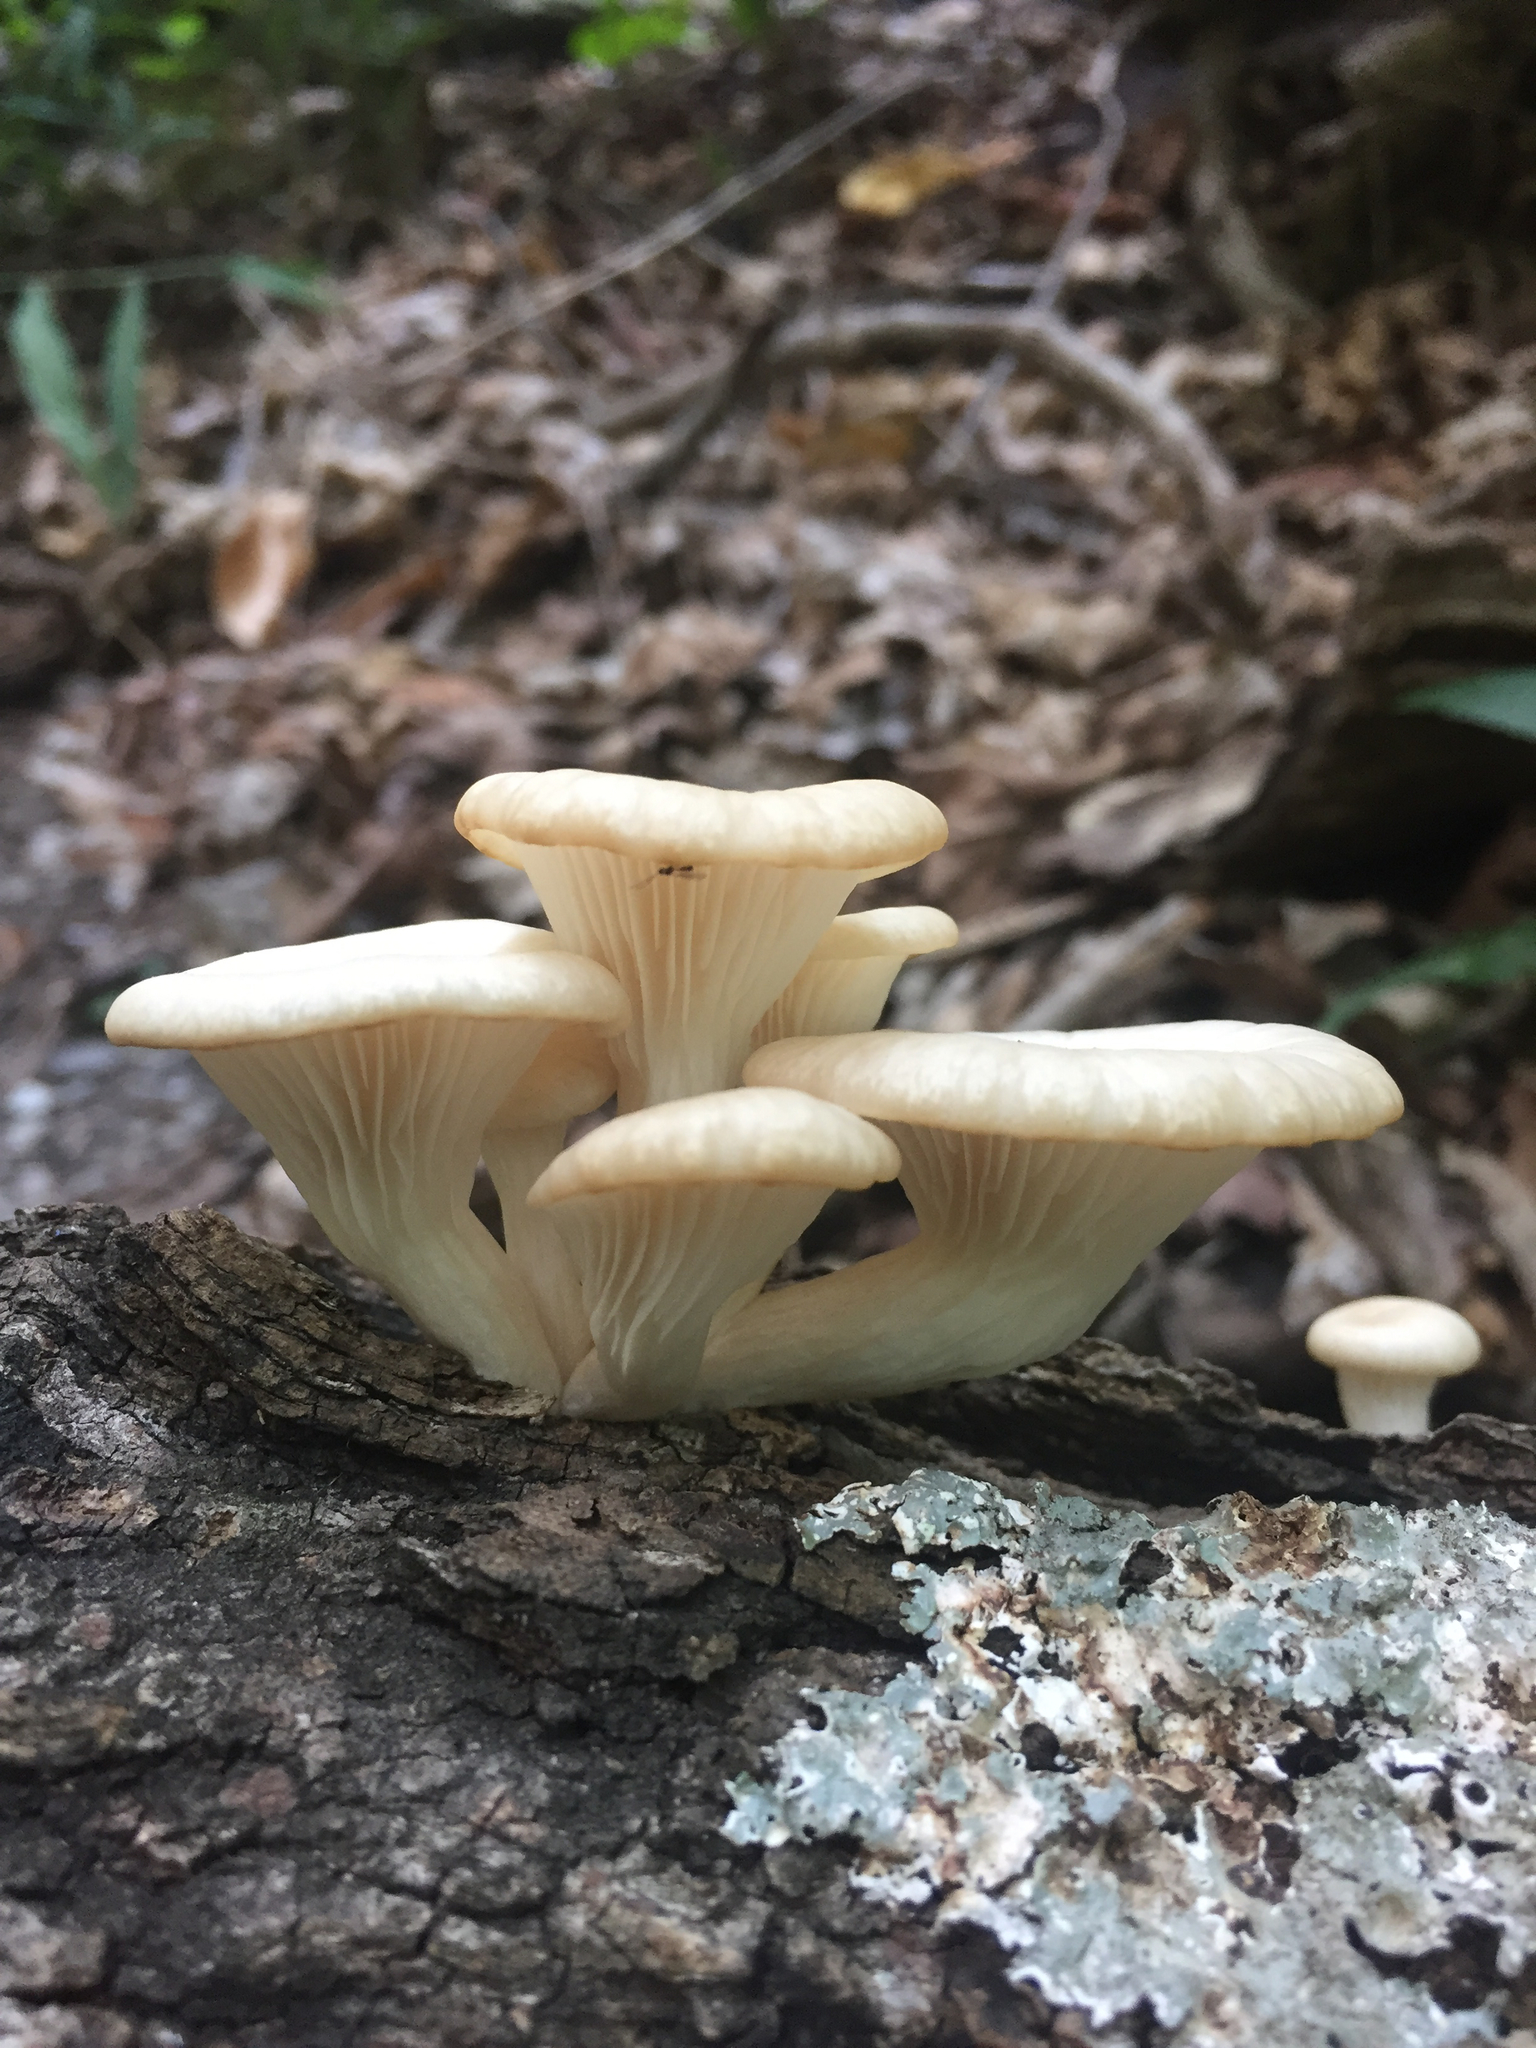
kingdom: Fungi
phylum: Basidiomycota
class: Agaricomycetes
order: Agaricales
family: Pleurotaceae
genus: Pleurotus
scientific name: Pleurotus pulmonarius
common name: Pale oyster
